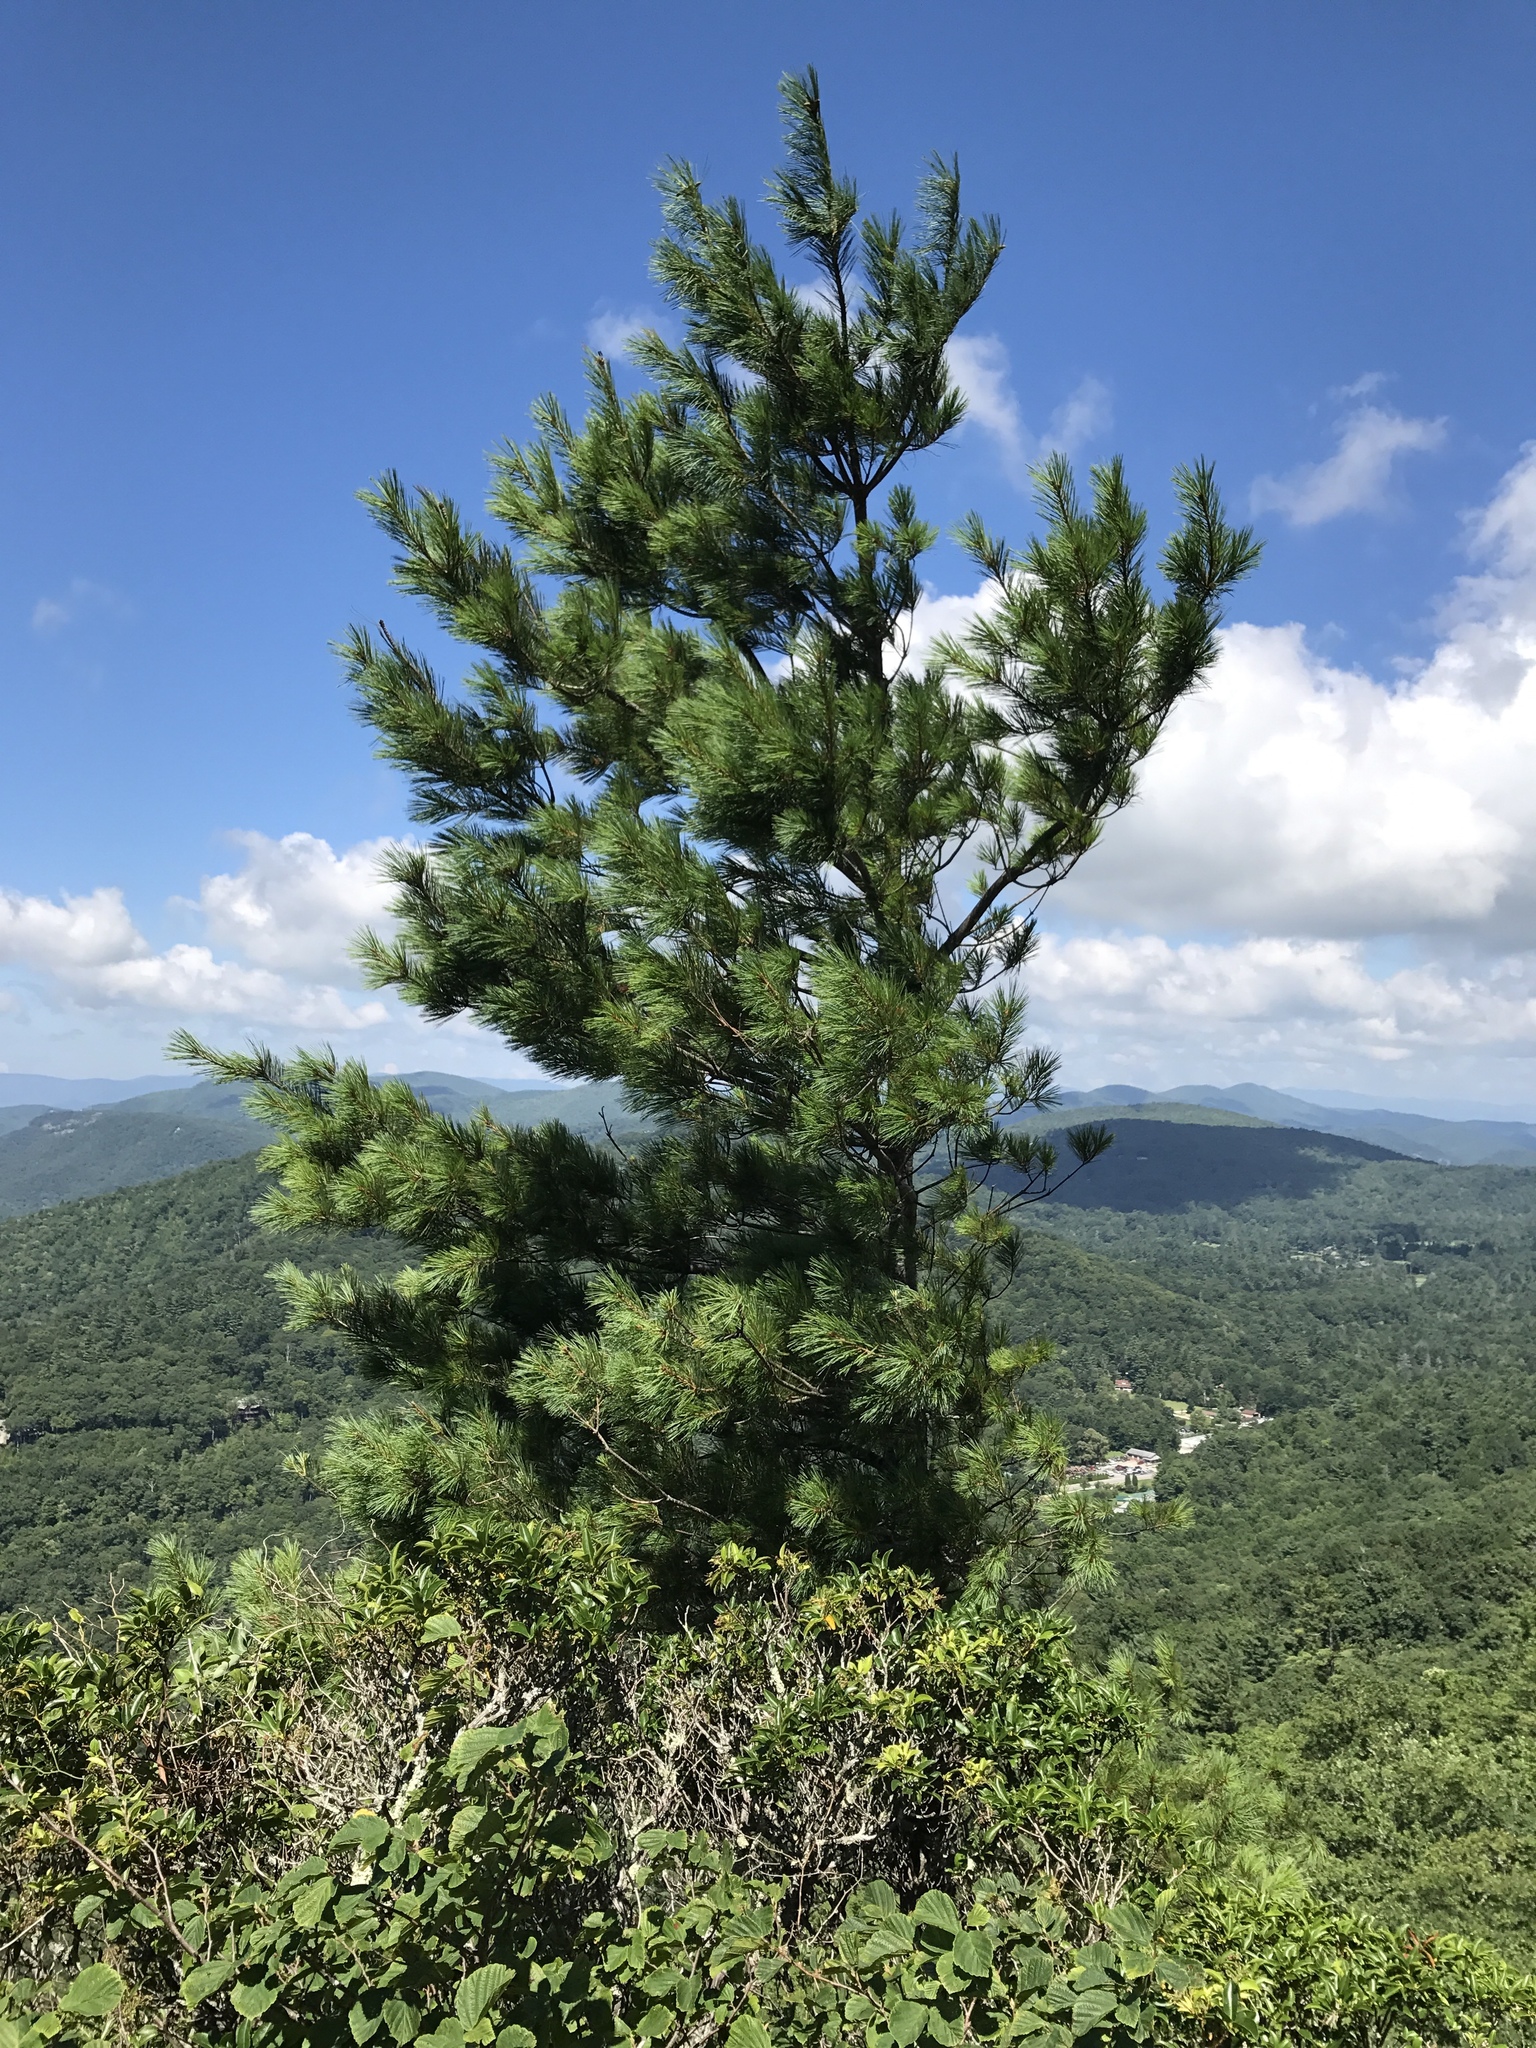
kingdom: Plantae
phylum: Tracheophyta
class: Pinopsida
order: Pinales
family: Pinaceae
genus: Pinus
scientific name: Pinus strobus
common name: Weymouth pine
